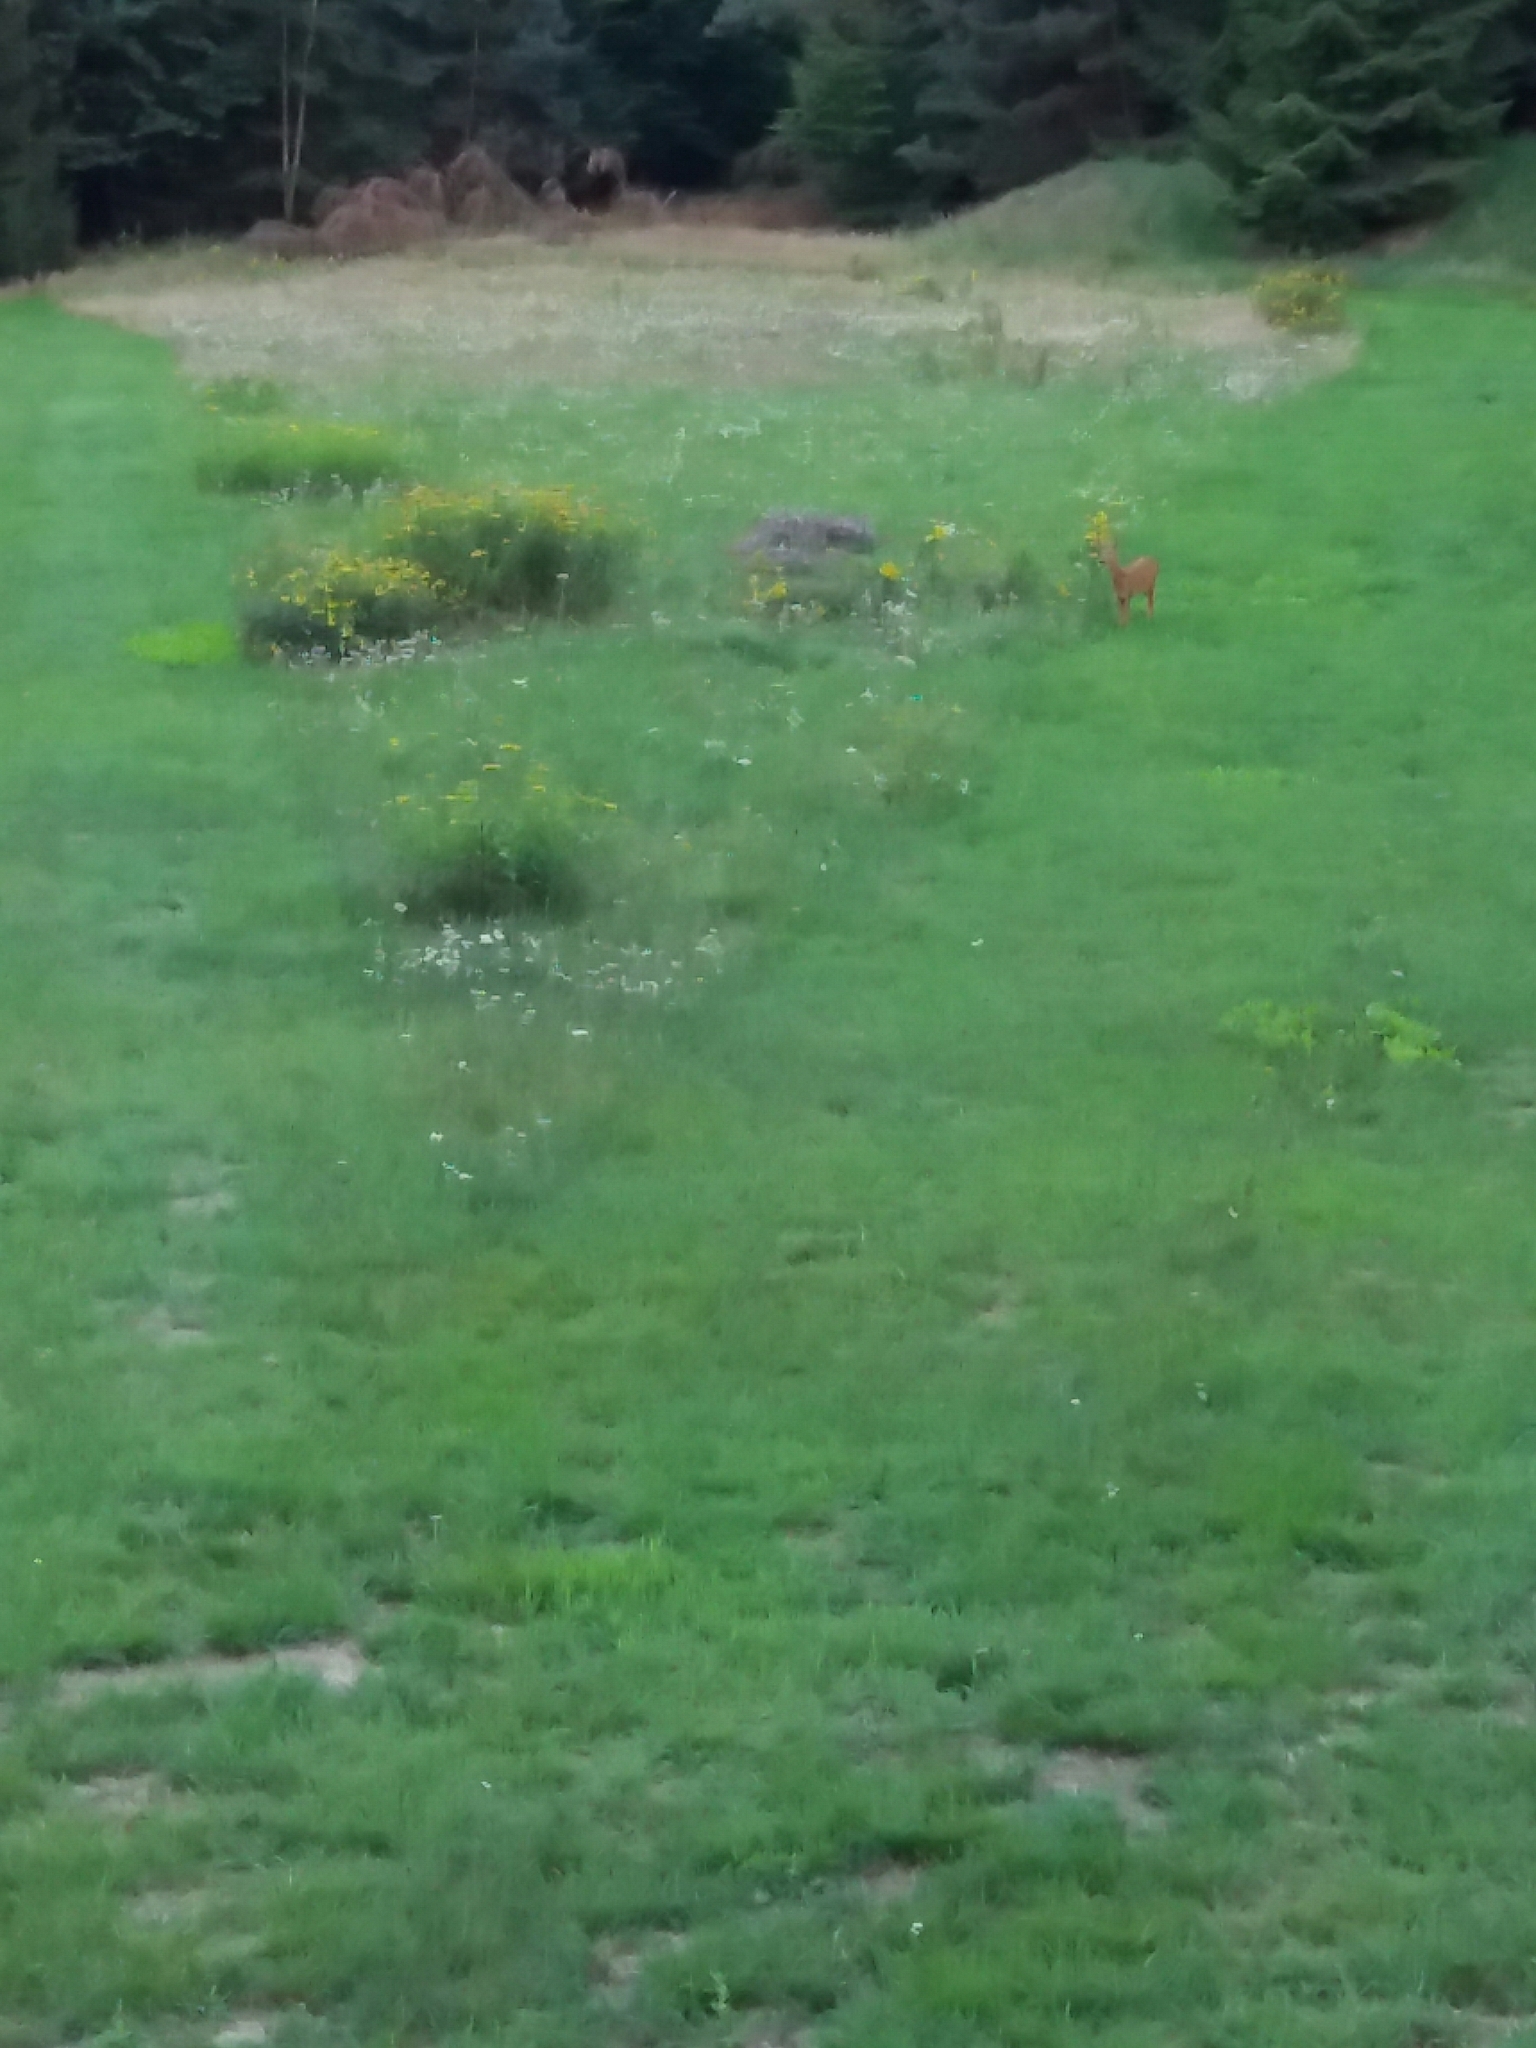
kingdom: Animalia
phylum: Chordata
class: Mammalia
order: Artiodactyla
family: Cervidae
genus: Capreolus
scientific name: Capreolus capreolus
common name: Western roe deer
